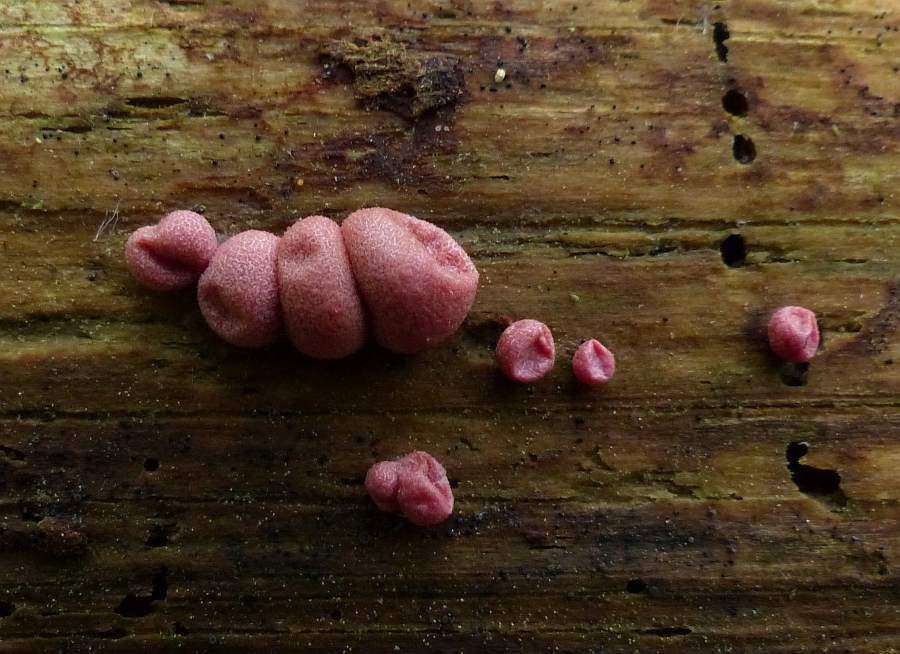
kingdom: Protozoa
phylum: Mycetozoa
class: Myxomycetes
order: Cribrariales
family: Tubiferaceae
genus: Lycogala
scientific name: Lycogala epidendrum
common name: Wolf's milk
